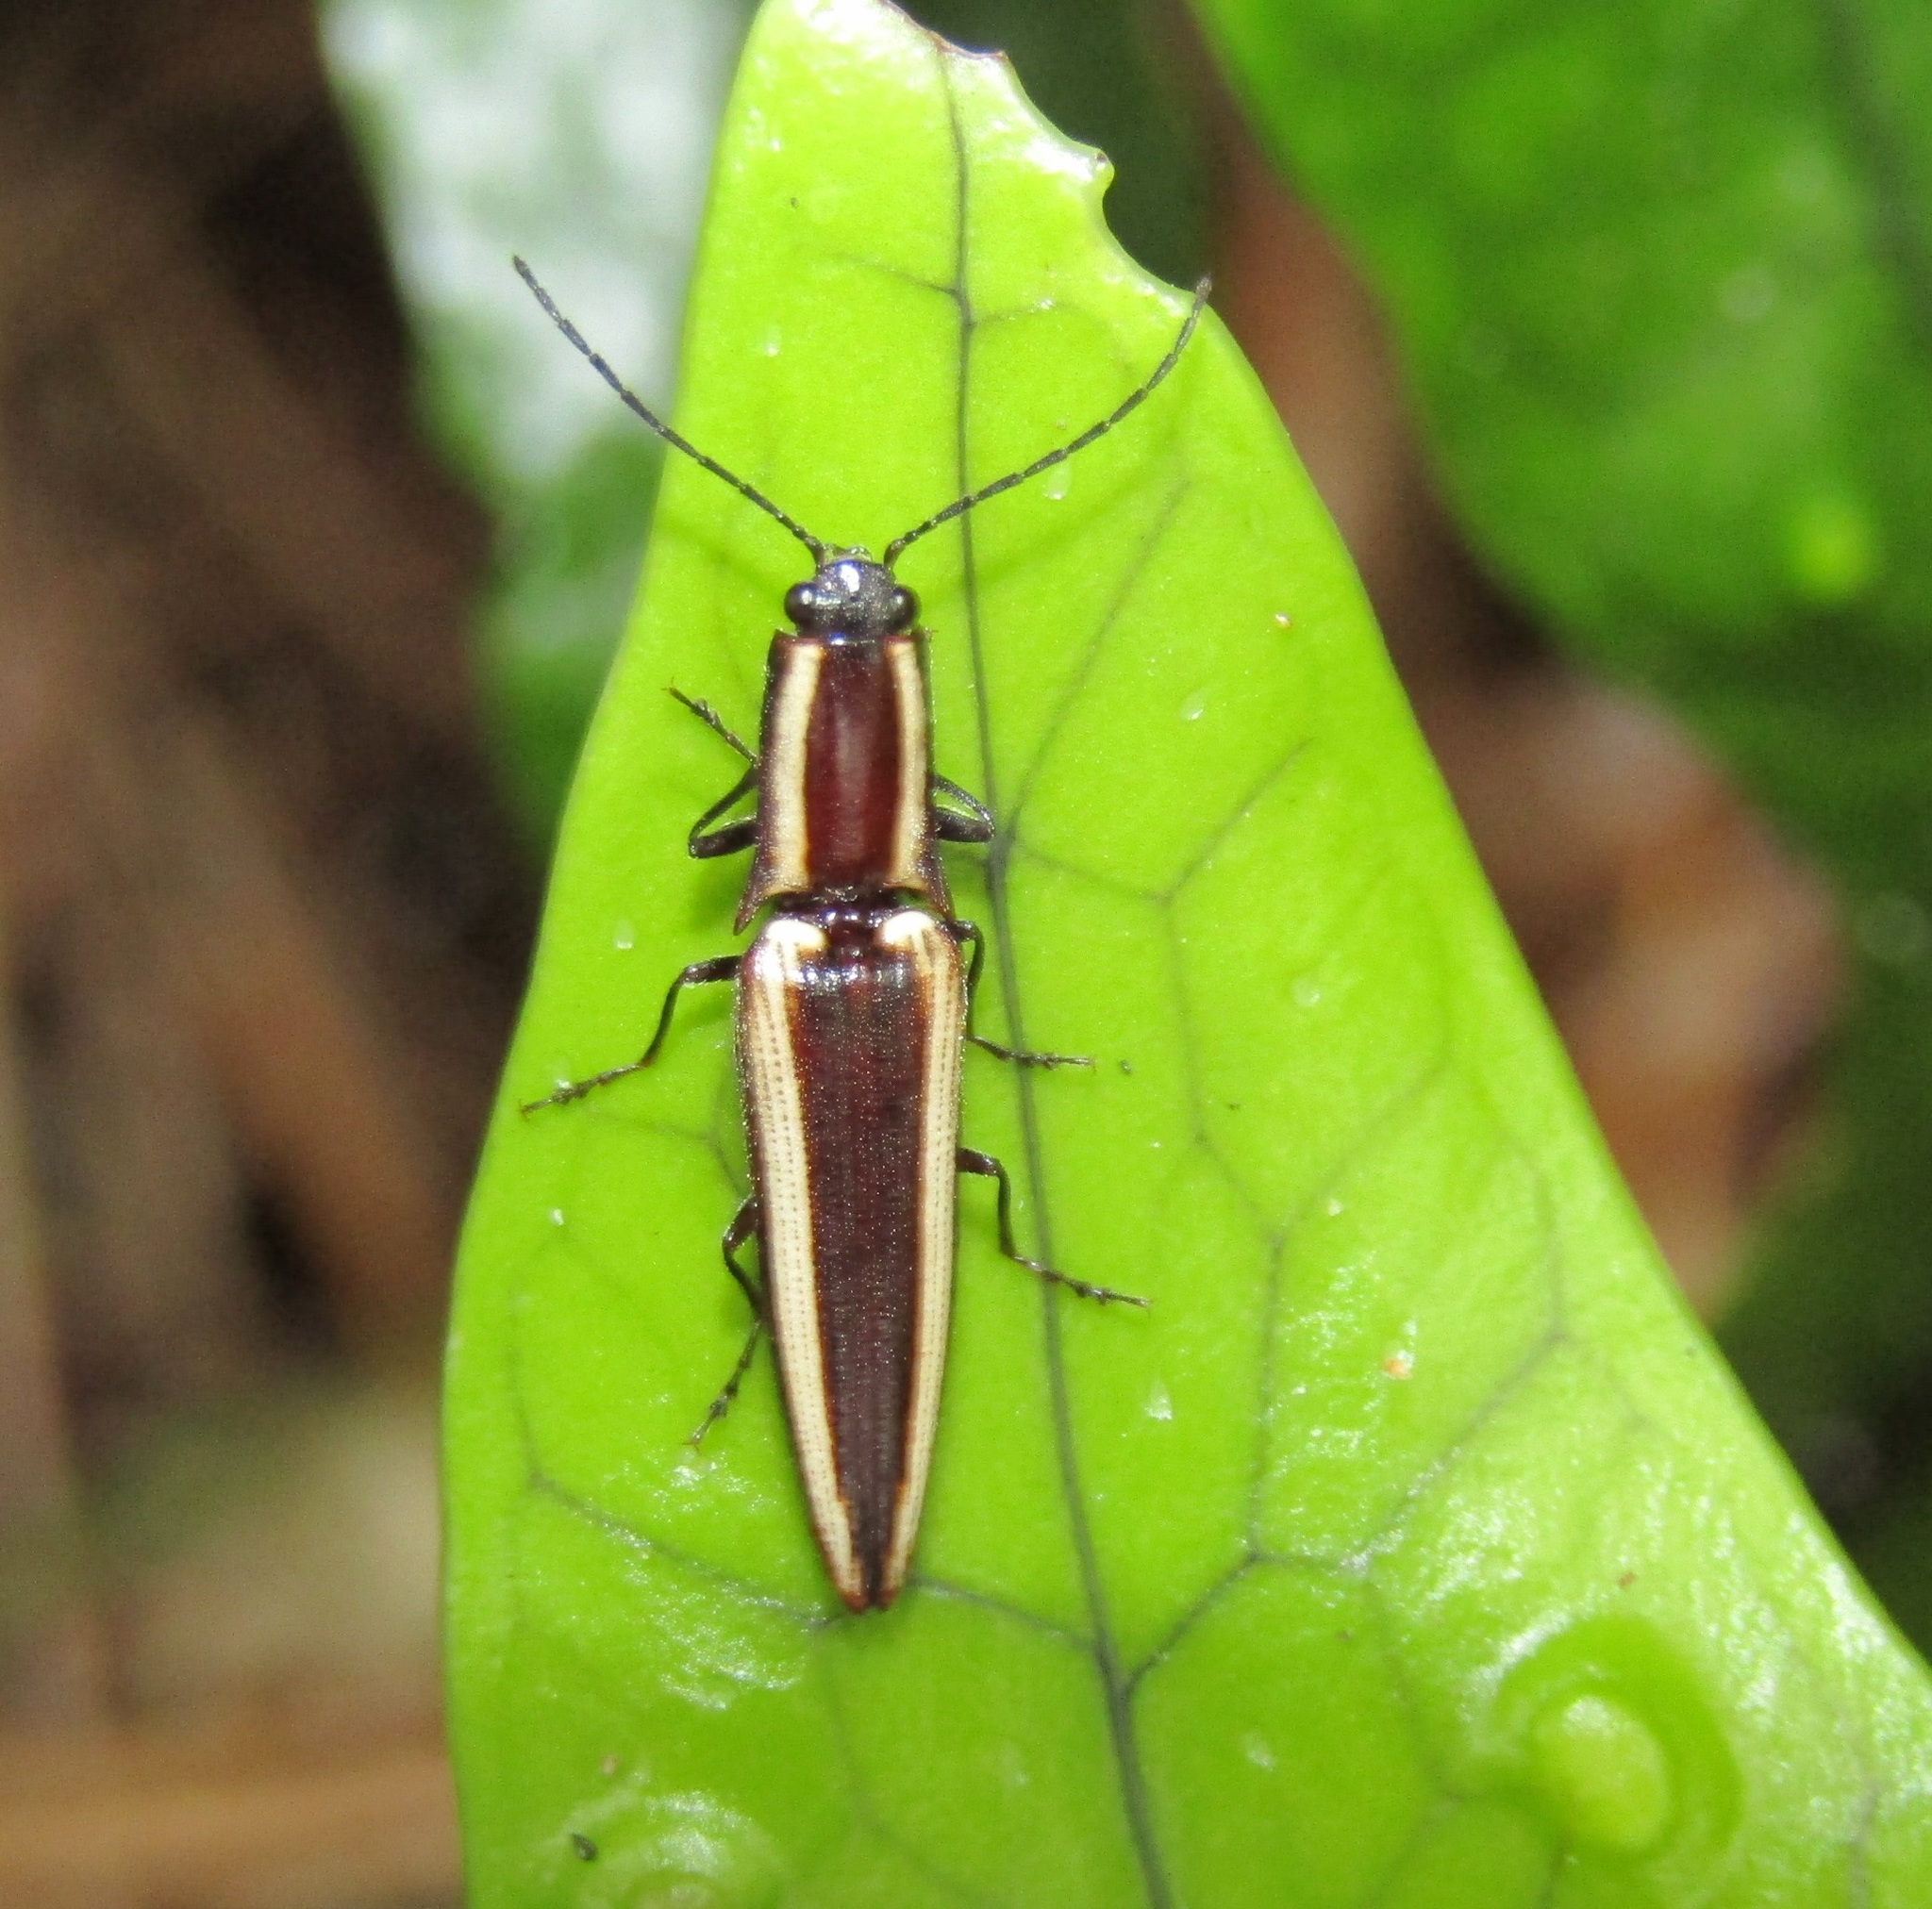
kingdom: Animalia
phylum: Arthropoda
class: Insecta
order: Coleoptera
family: Elateridae
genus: Metablax
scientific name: Metablax
